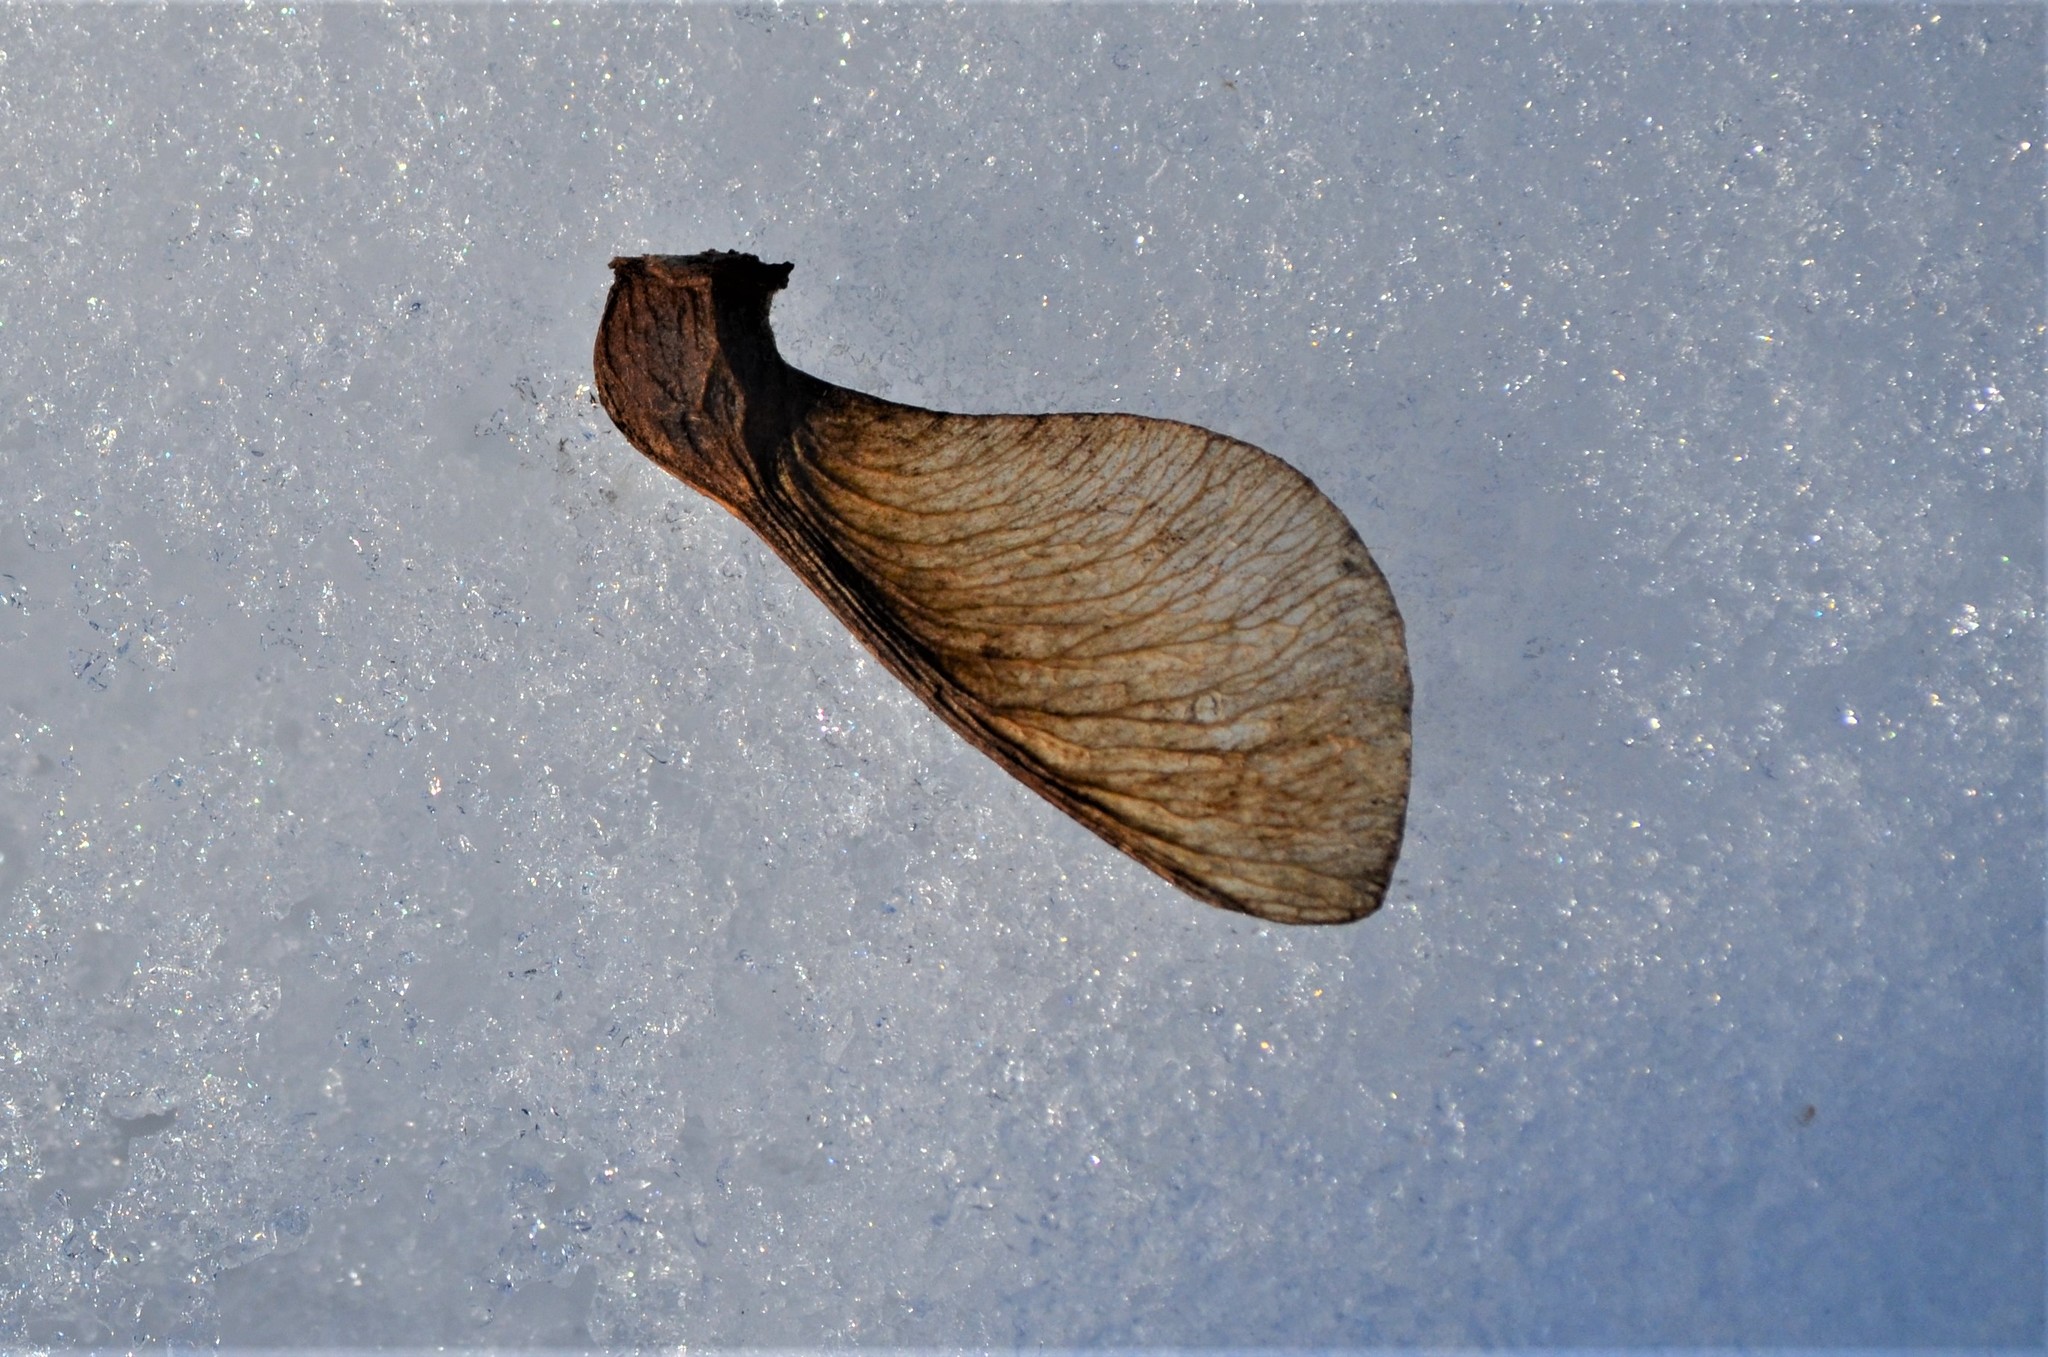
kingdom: Plantae
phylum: Tracheophyta
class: Magnoliopsida
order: Sapindales
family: Sapindaceae
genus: Acer
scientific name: Acer pseudoplatanus
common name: Sycamore
